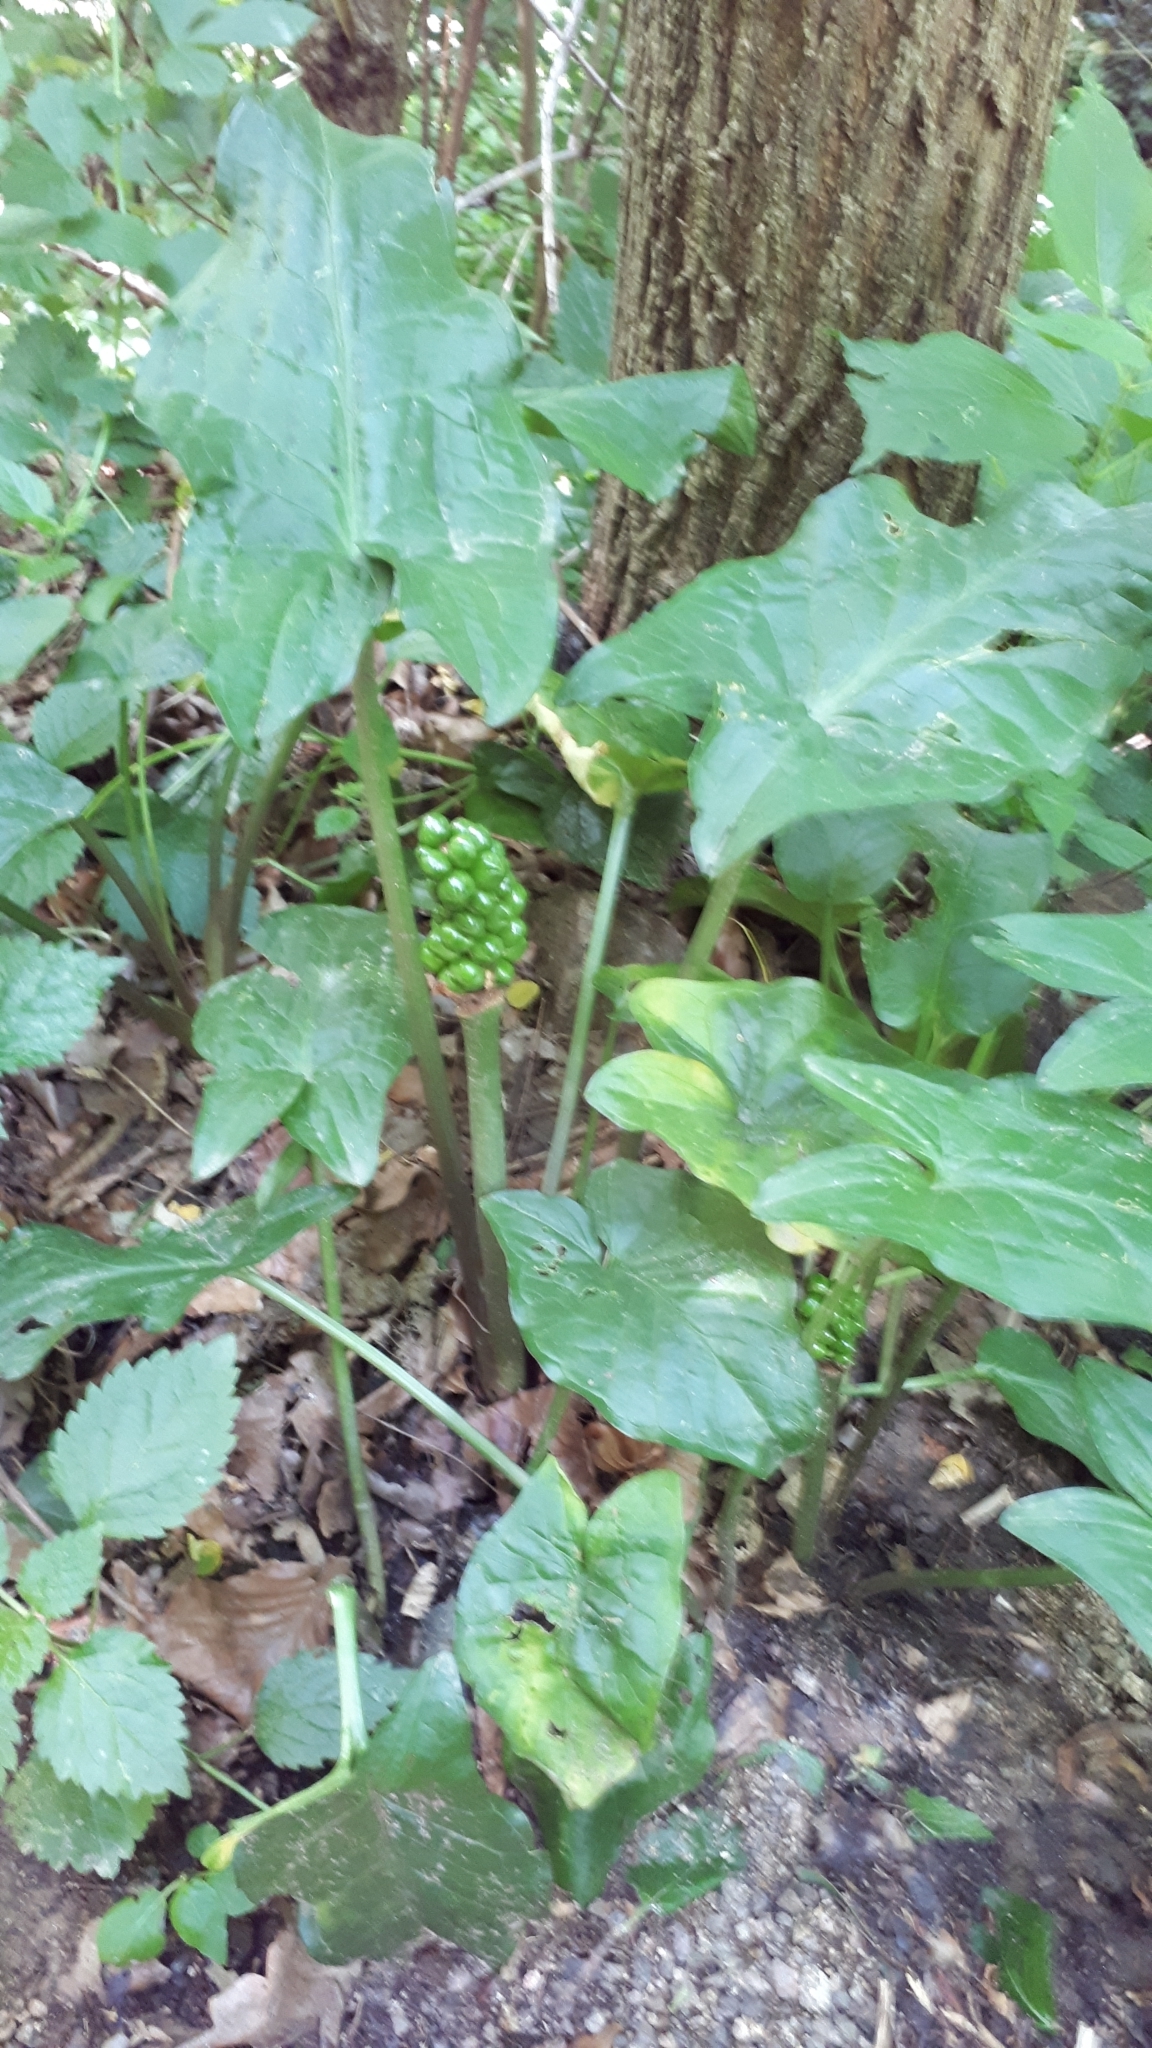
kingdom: Plantae
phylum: Tracheophyta
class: Liliopsida
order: Alismatales
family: Araceae
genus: Arum
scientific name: Arum maculatum
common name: Lords-and-ladies
